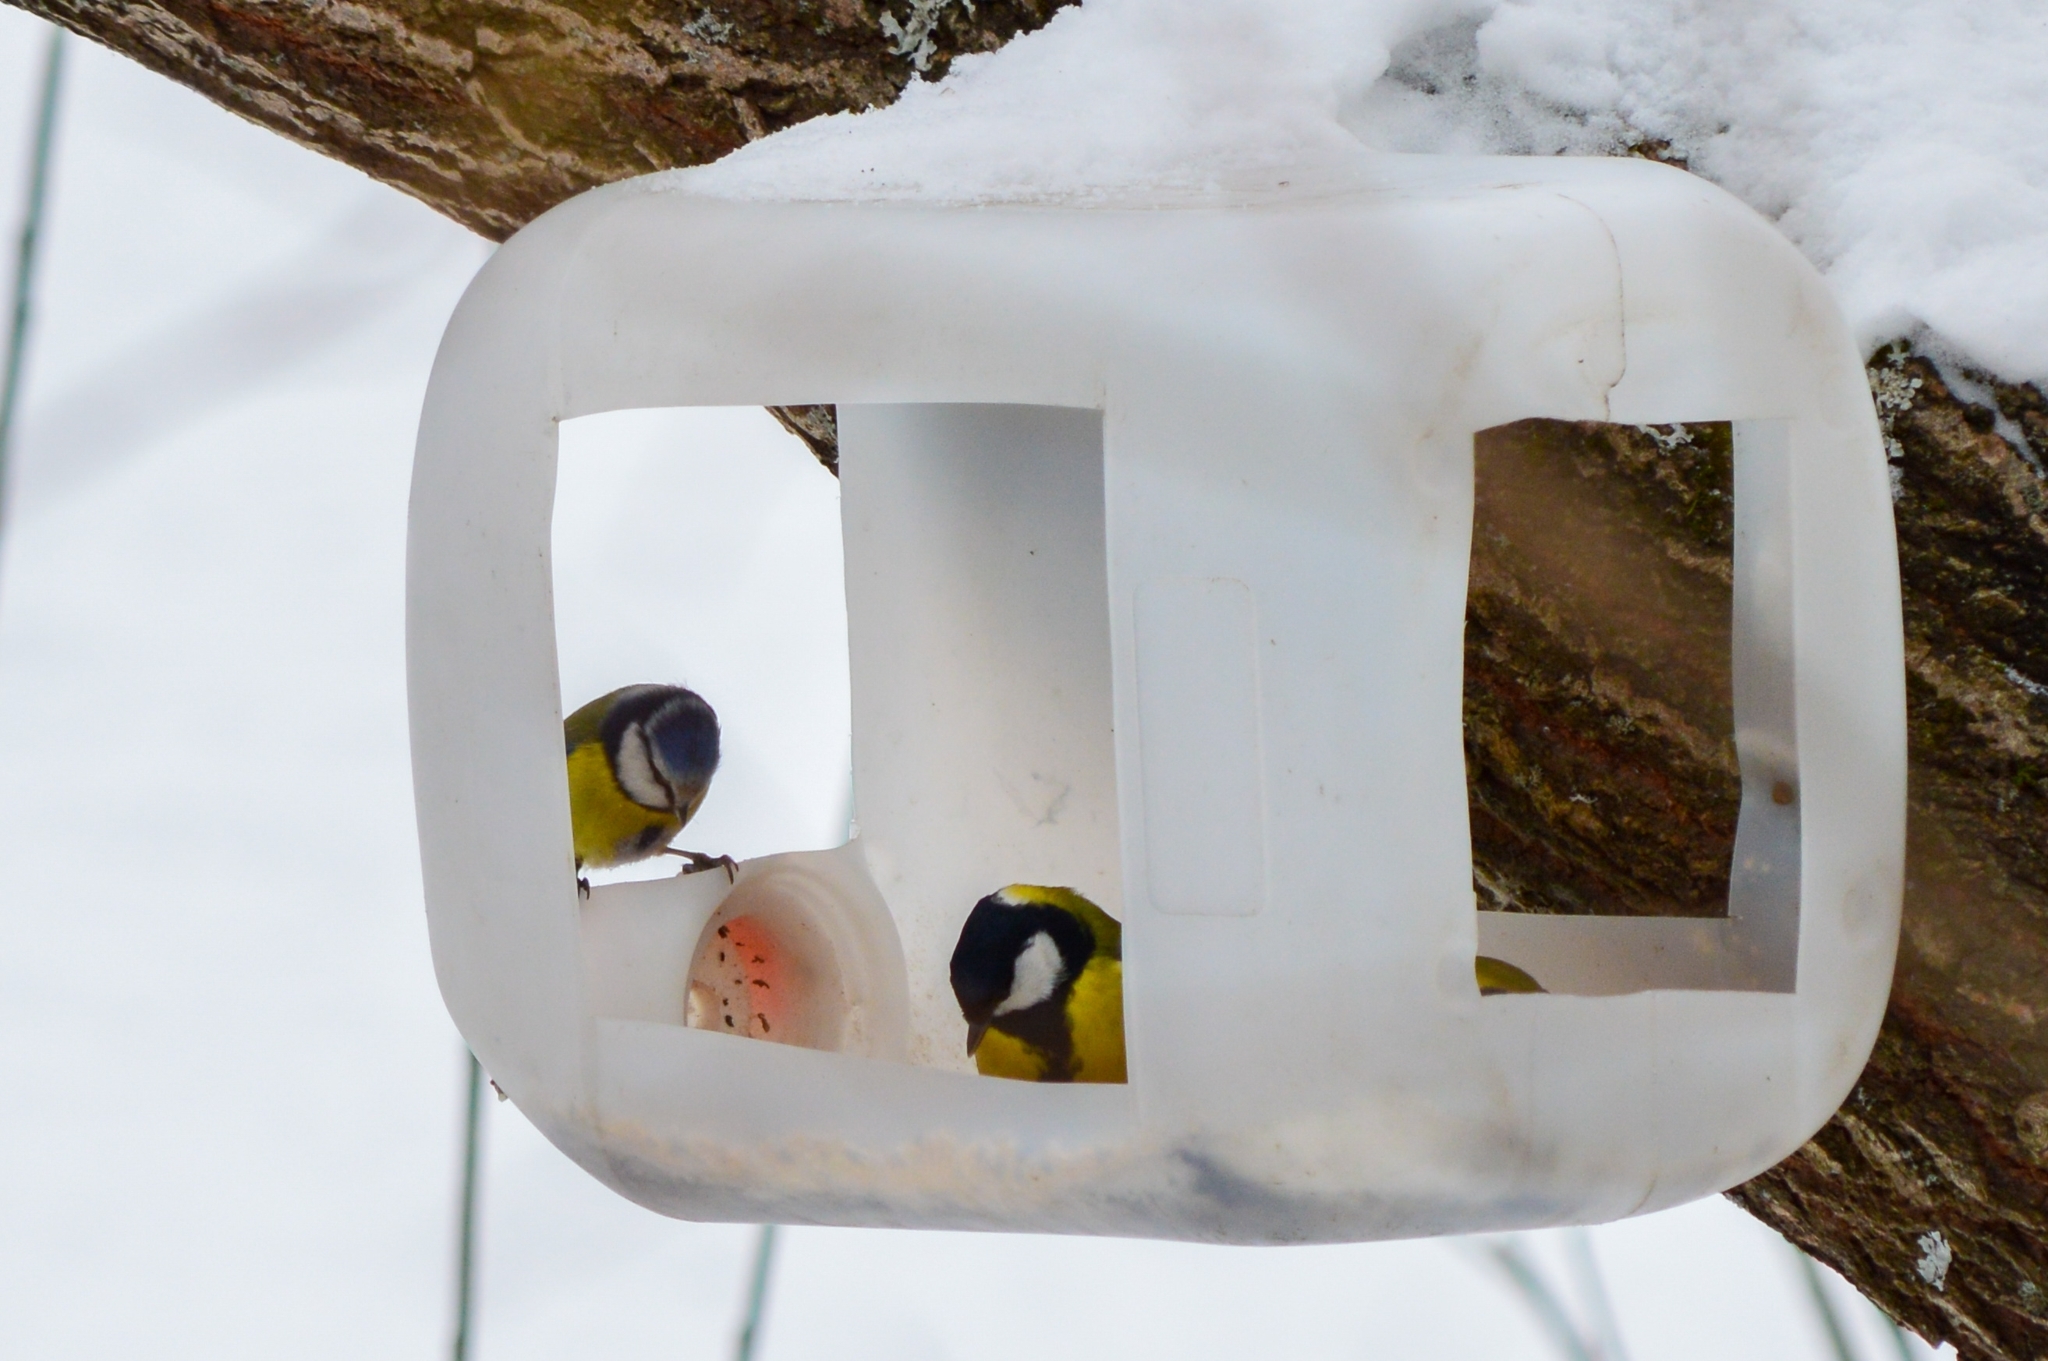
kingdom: Animalia
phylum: Chordata
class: Aves
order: Passeriformes
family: Paridae
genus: Parus
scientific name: Parus major
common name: Great tit
